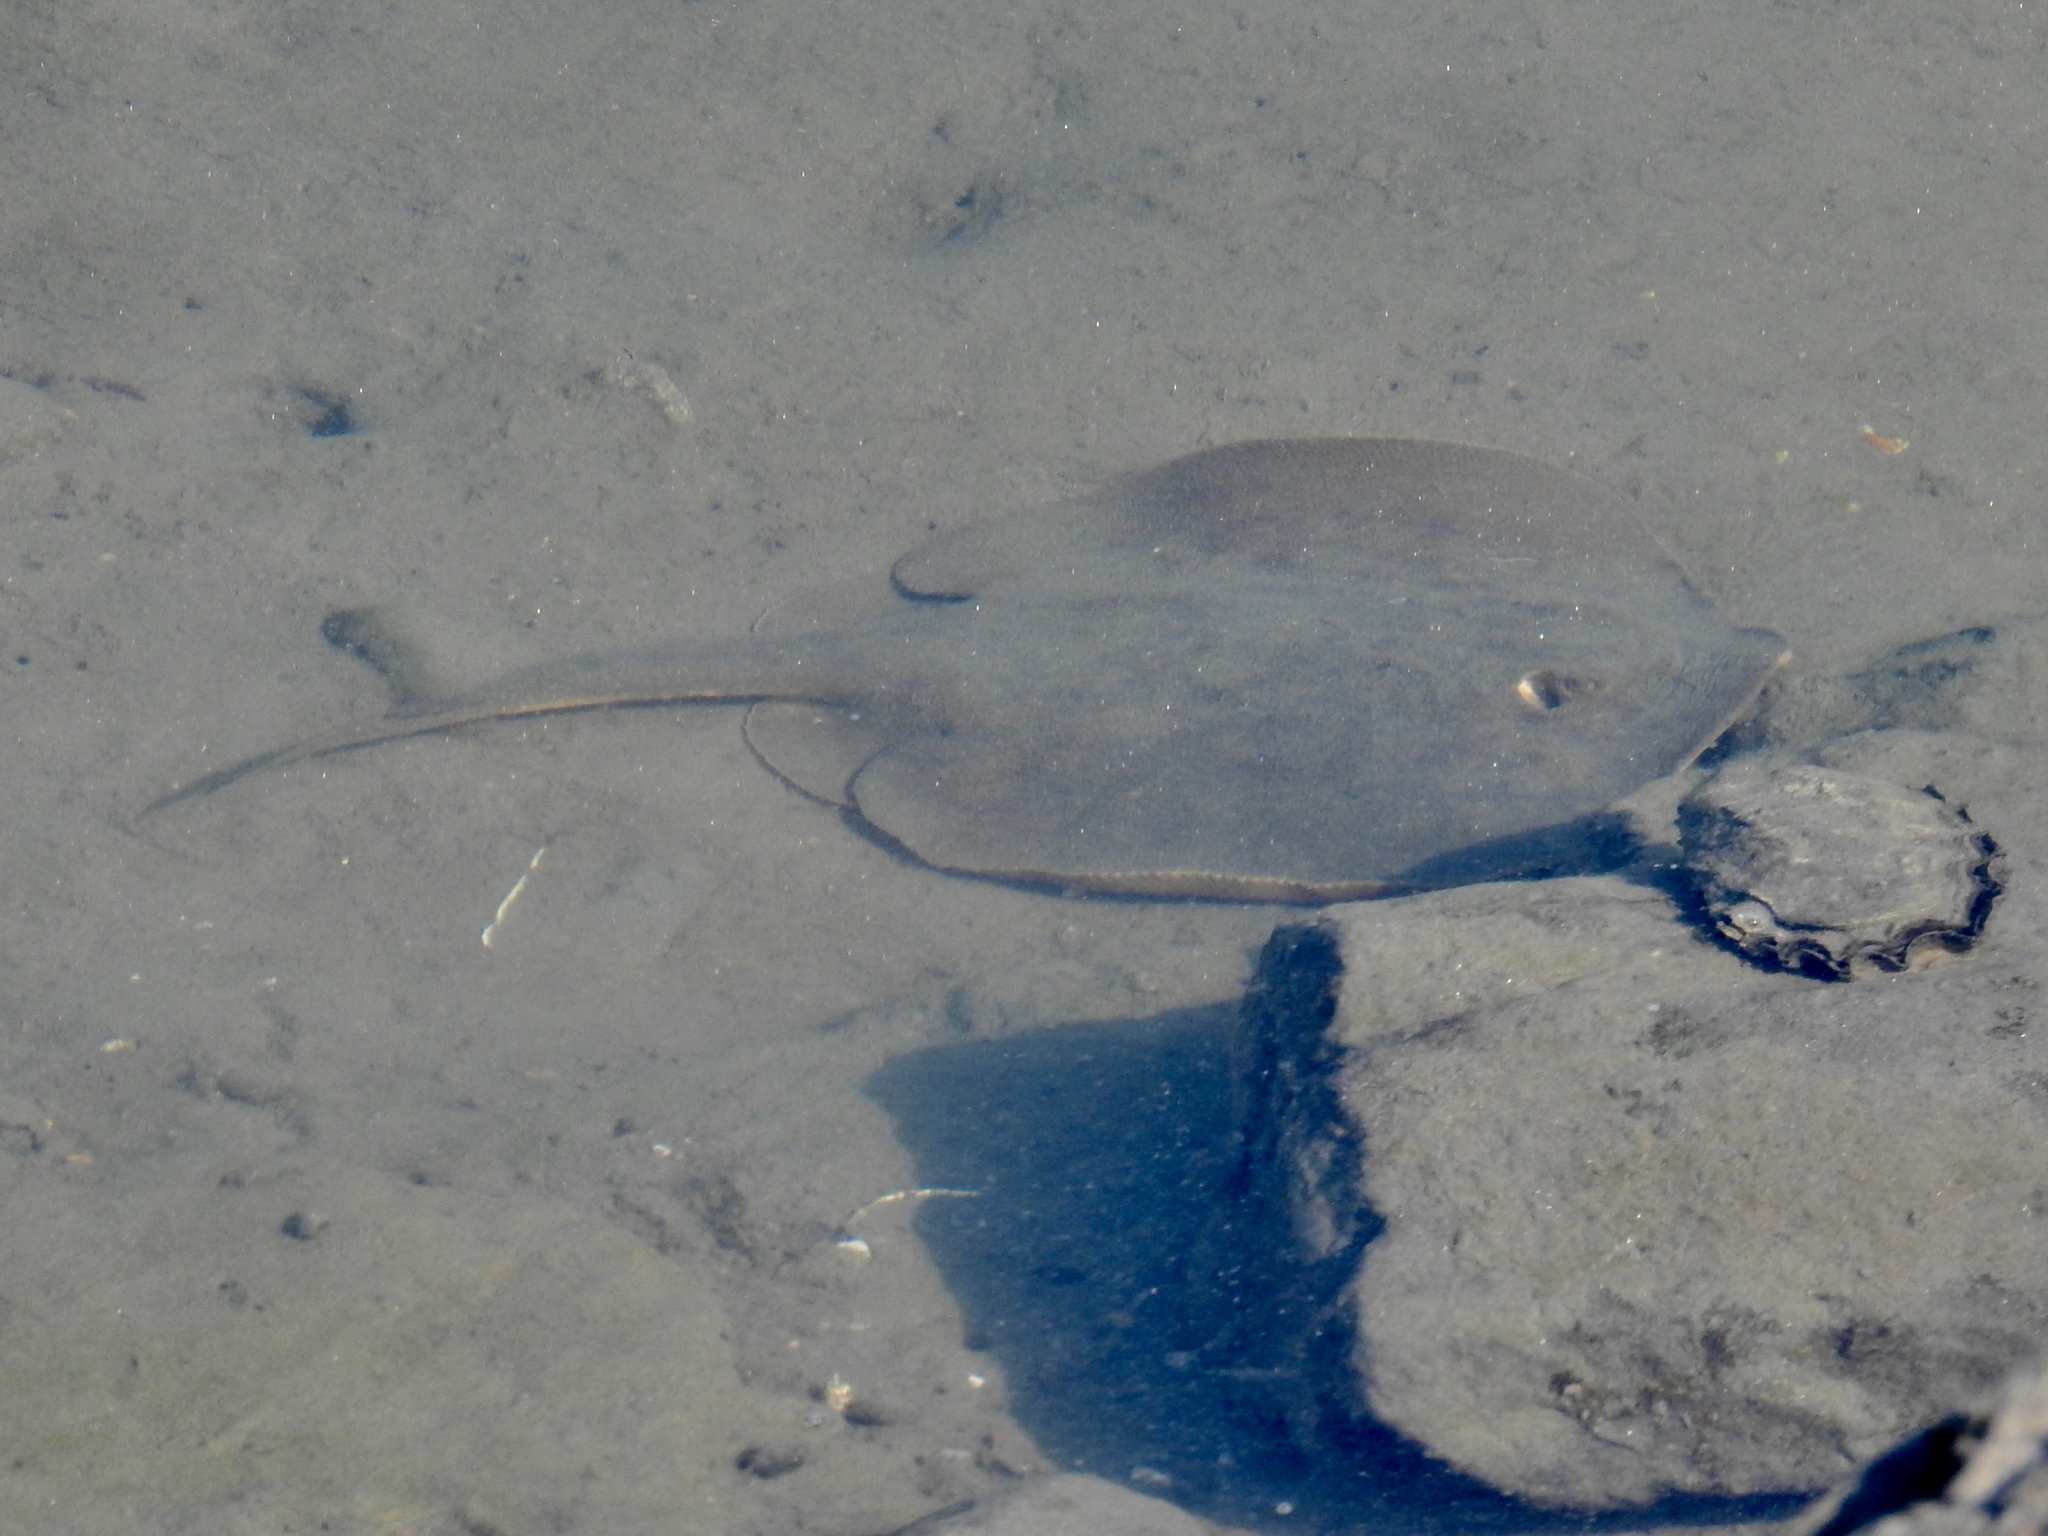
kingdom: Animalia
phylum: Chordata
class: Elasmobranchii
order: Myliobatiformes
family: Urolophidae
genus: Urolophus
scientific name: Urolophus halleri
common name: Round stingray
